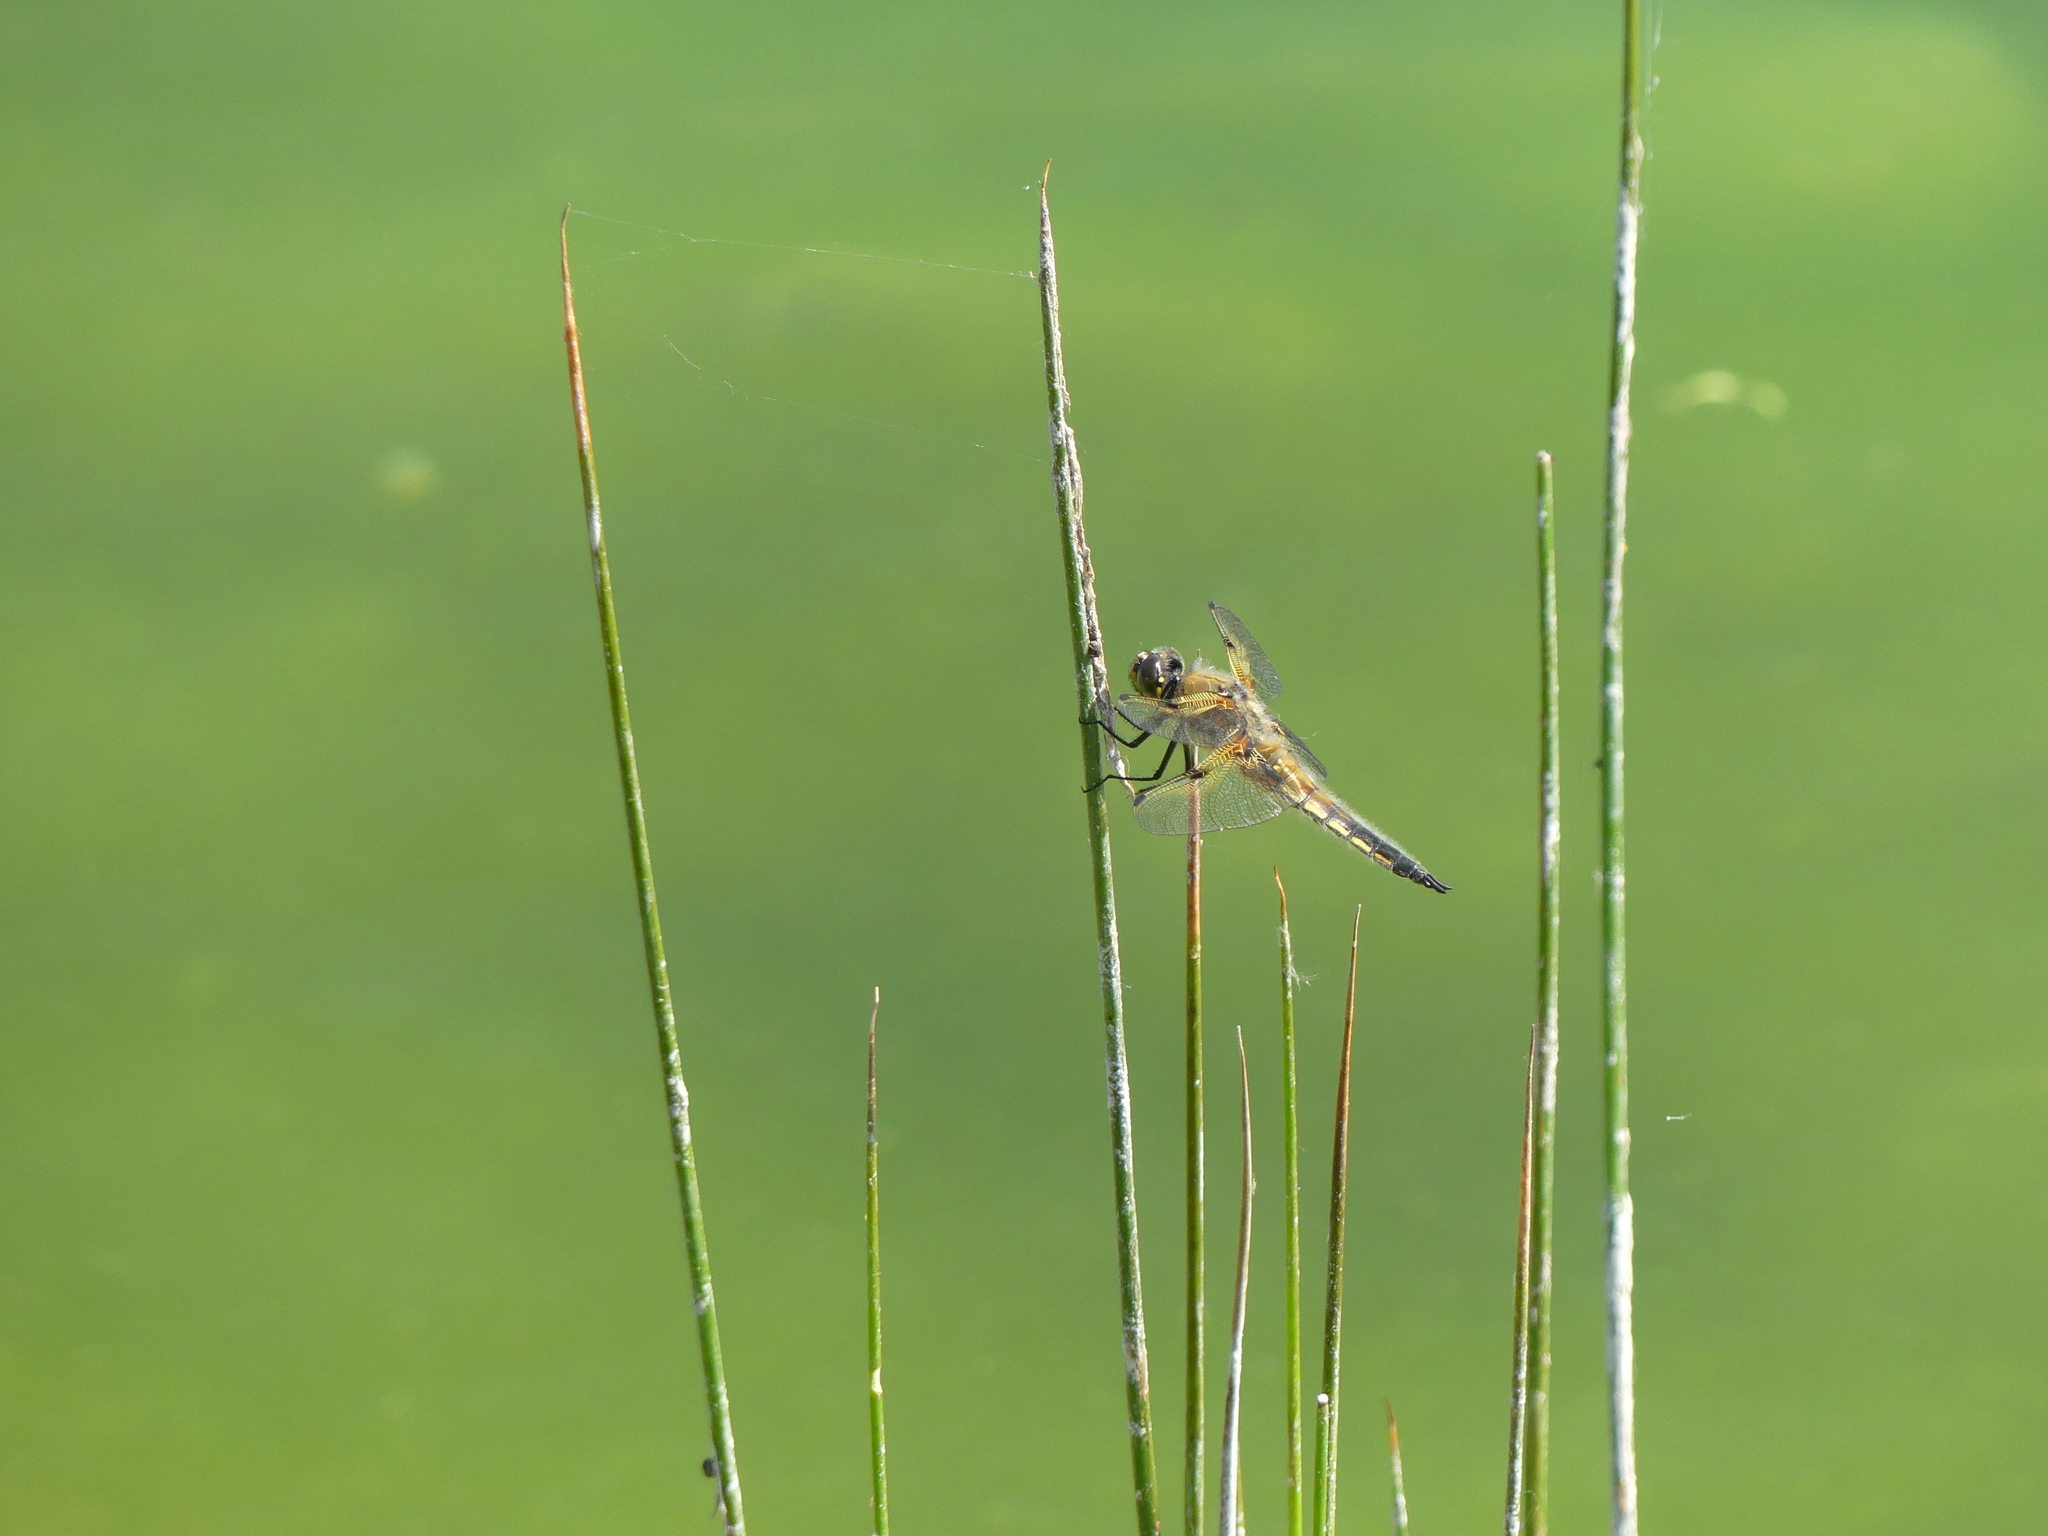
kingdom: Animalia
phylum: Arthropoda
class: Insecta
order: Odonata
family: Libellulidae
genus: Libellula
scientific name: Libellula quadrimaculata
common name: Four-spotted chaser
